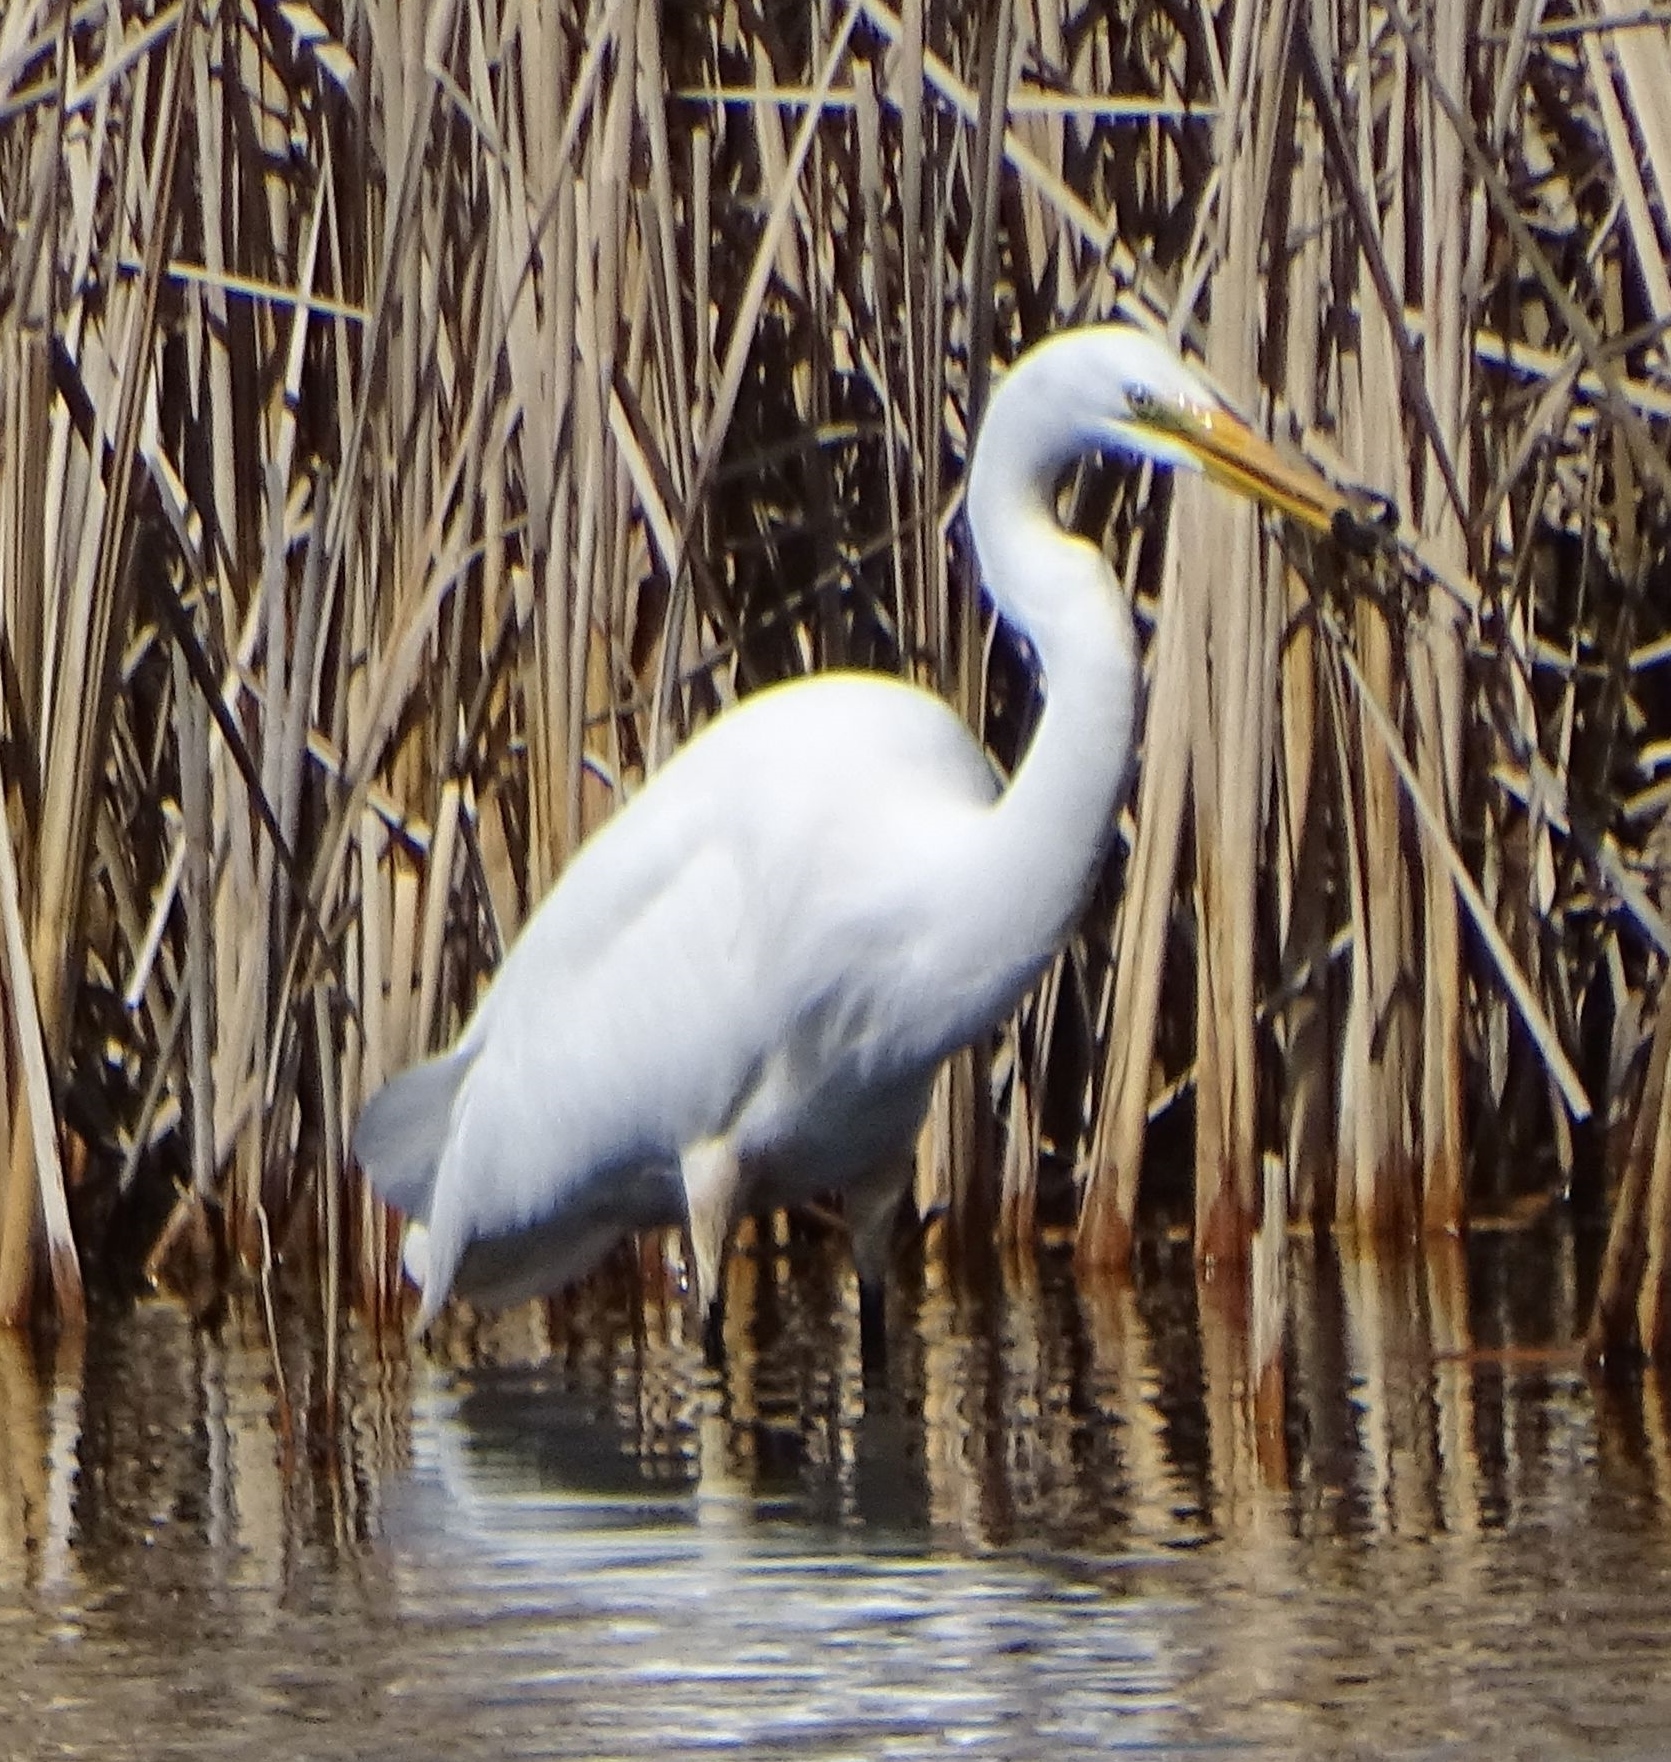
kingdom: Animalia
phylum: Chordata
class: Aves
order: Pelecaniformes
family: Ardeidae
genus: Ardea
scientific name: Ardea alba
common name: Great egret
